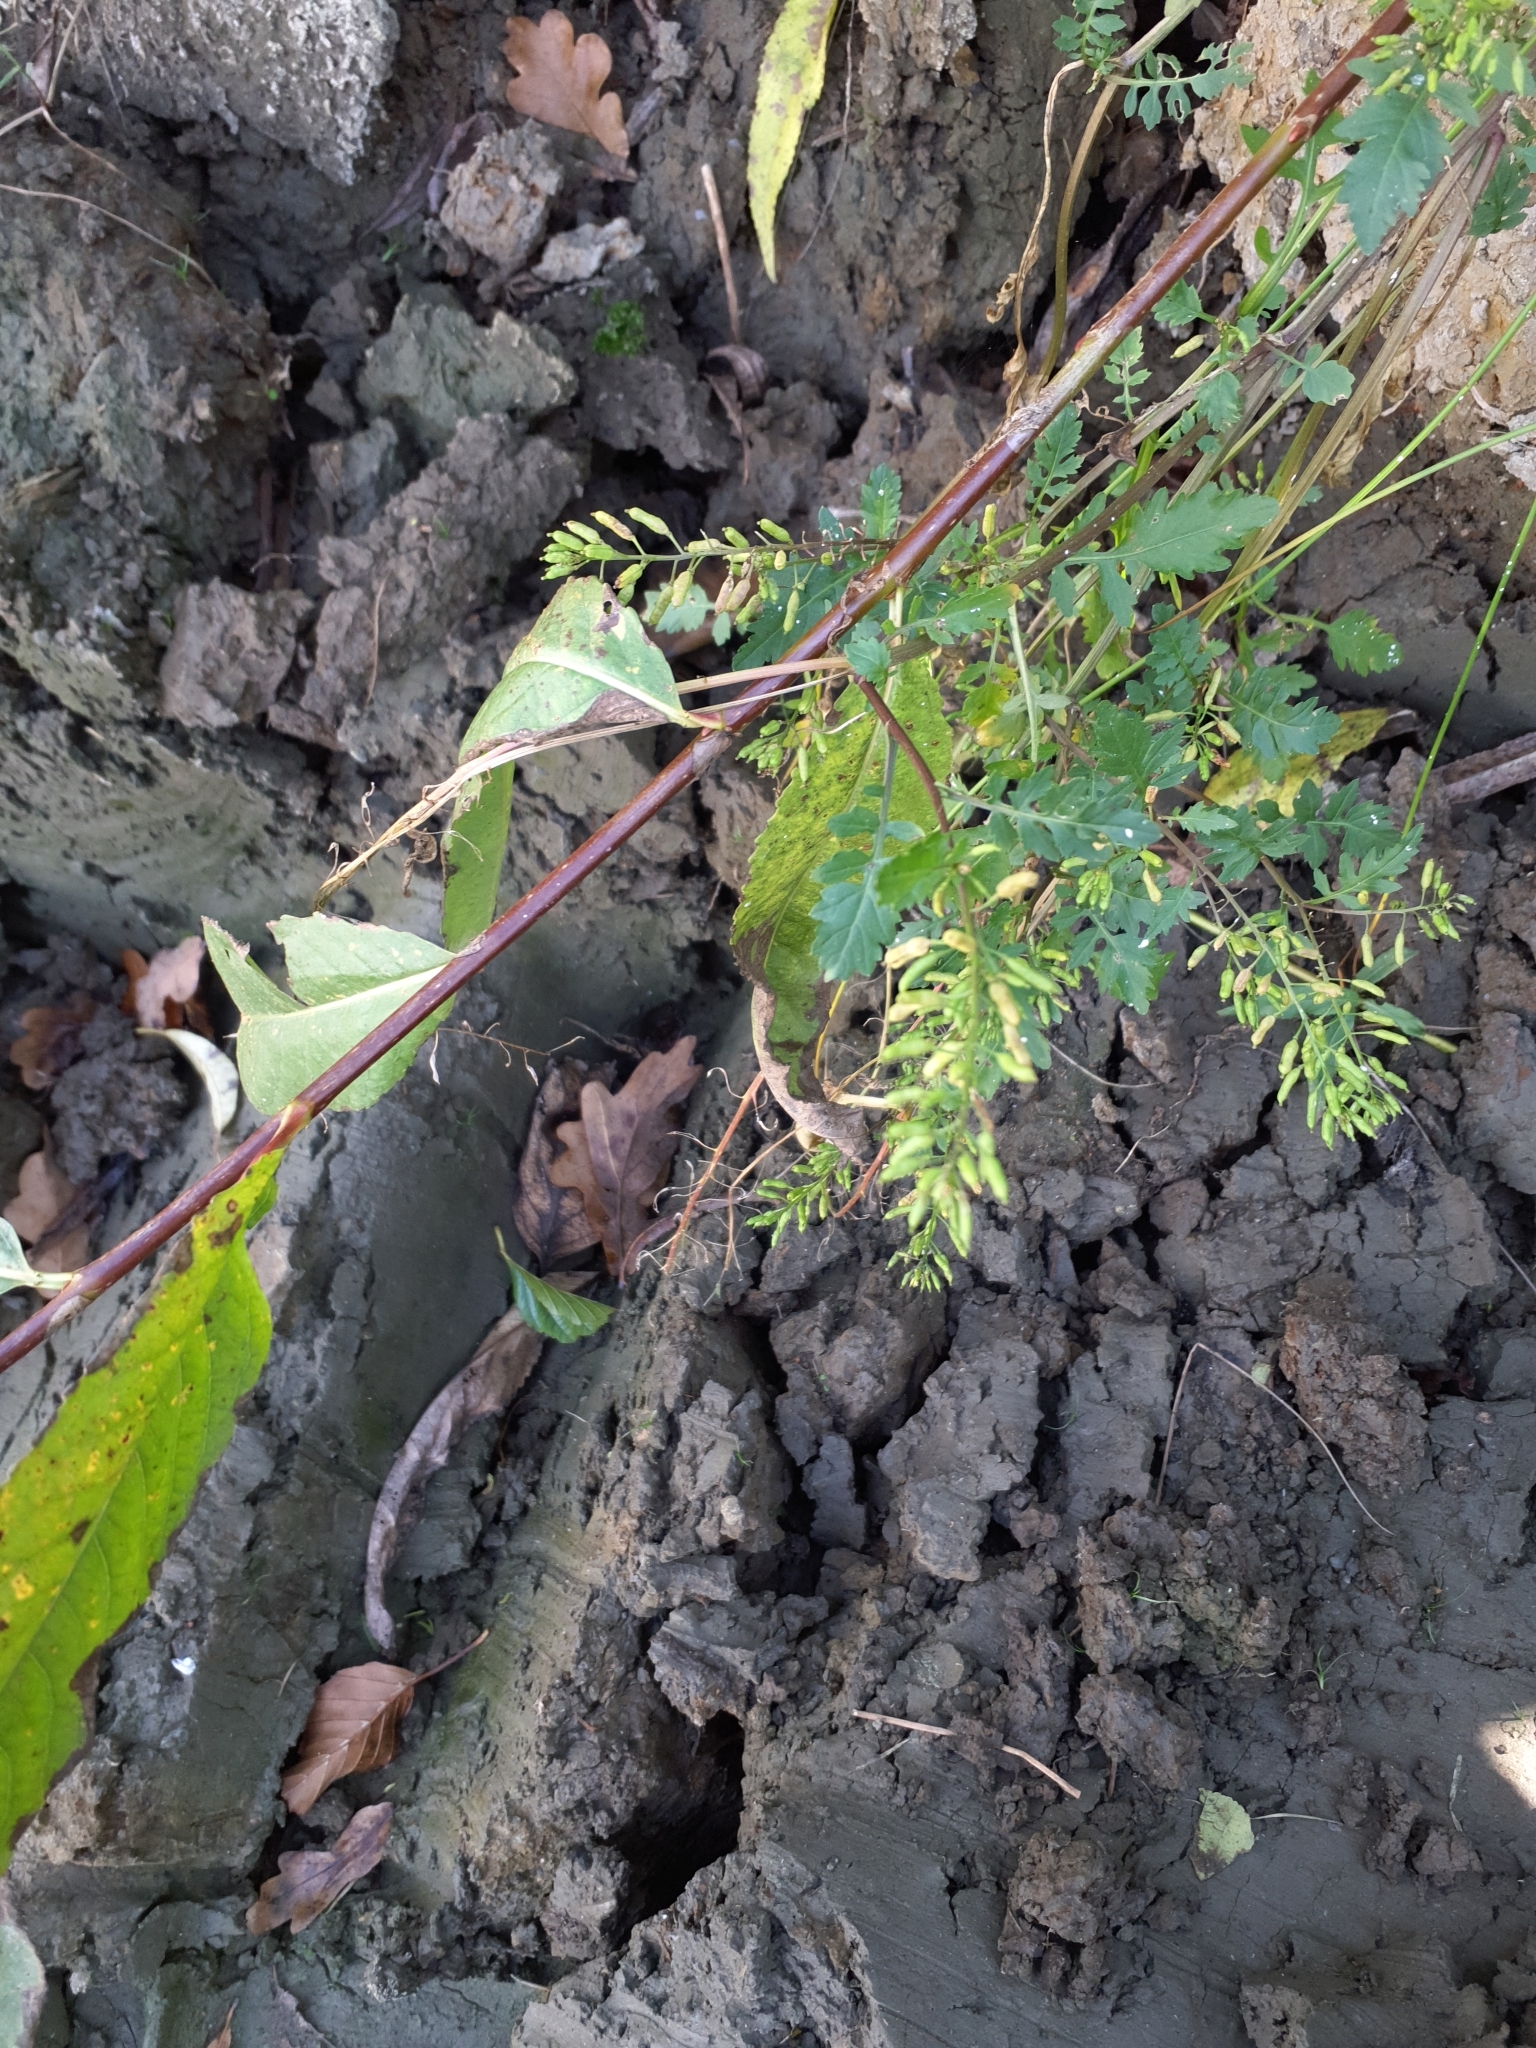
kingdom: Plantae
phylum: Tracheophyta
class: Magnoliopsida
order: Brassicales
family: Brassicaceae
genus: Rorippa
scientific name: Rorippa palustris
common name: Marsh yellow-cress
